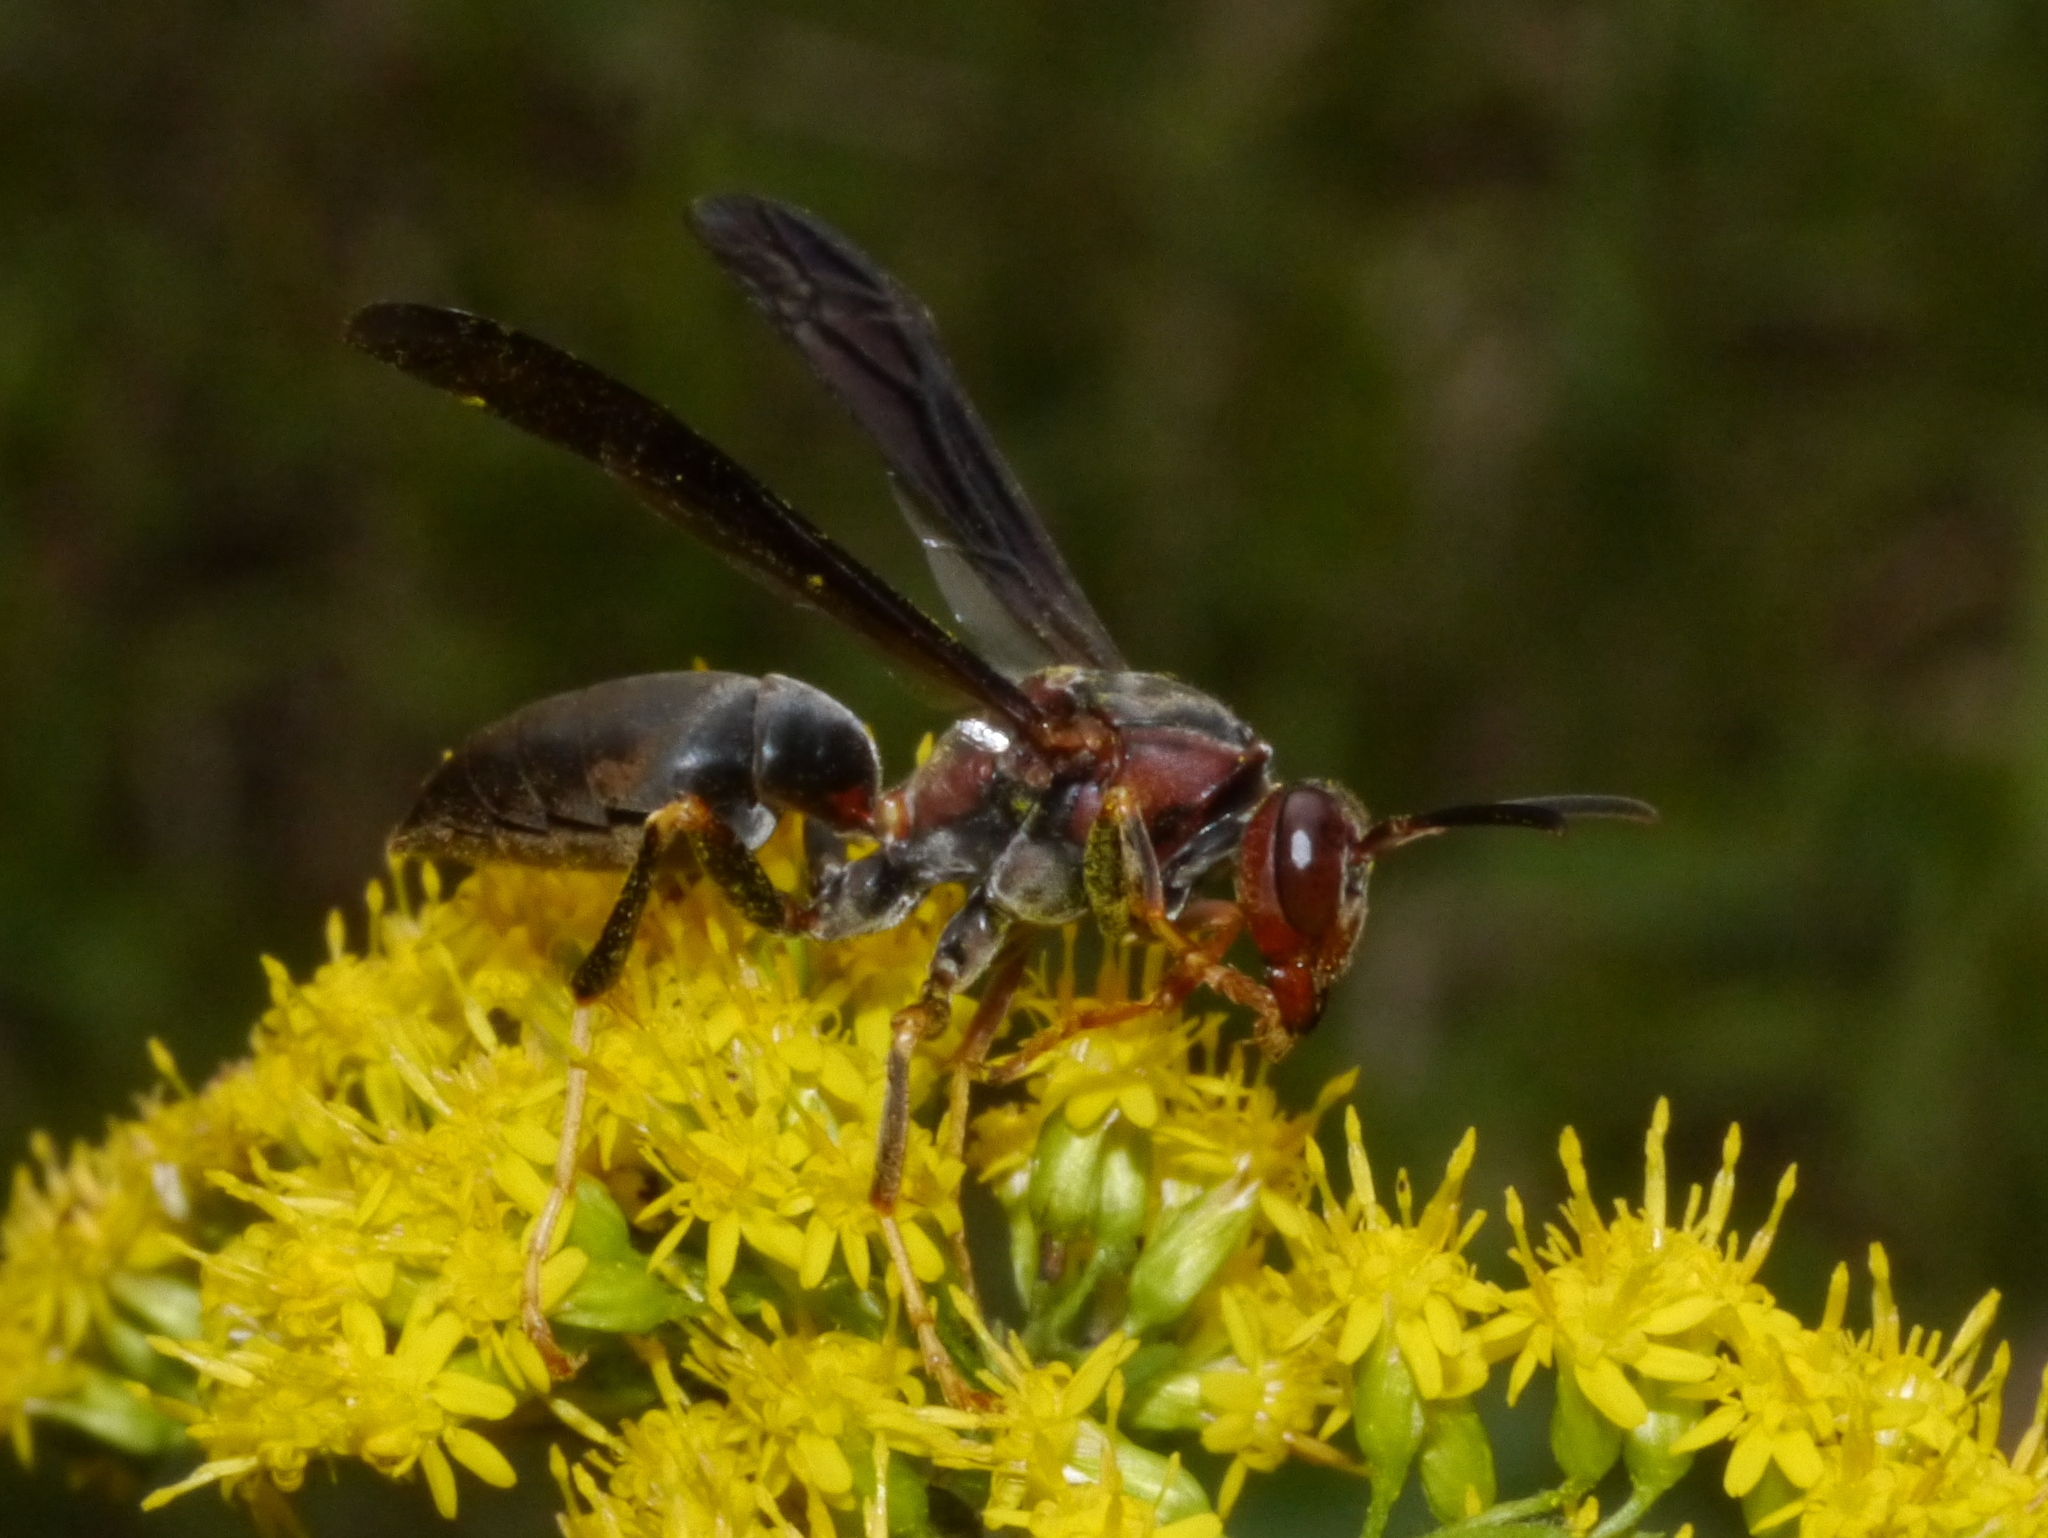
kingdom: Animalia
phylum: Arthropoda
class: Insecta
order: Hymenoptera
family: Eumenidae
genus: Polistes
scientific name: Polistes metricus
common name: Metric paper wasp
